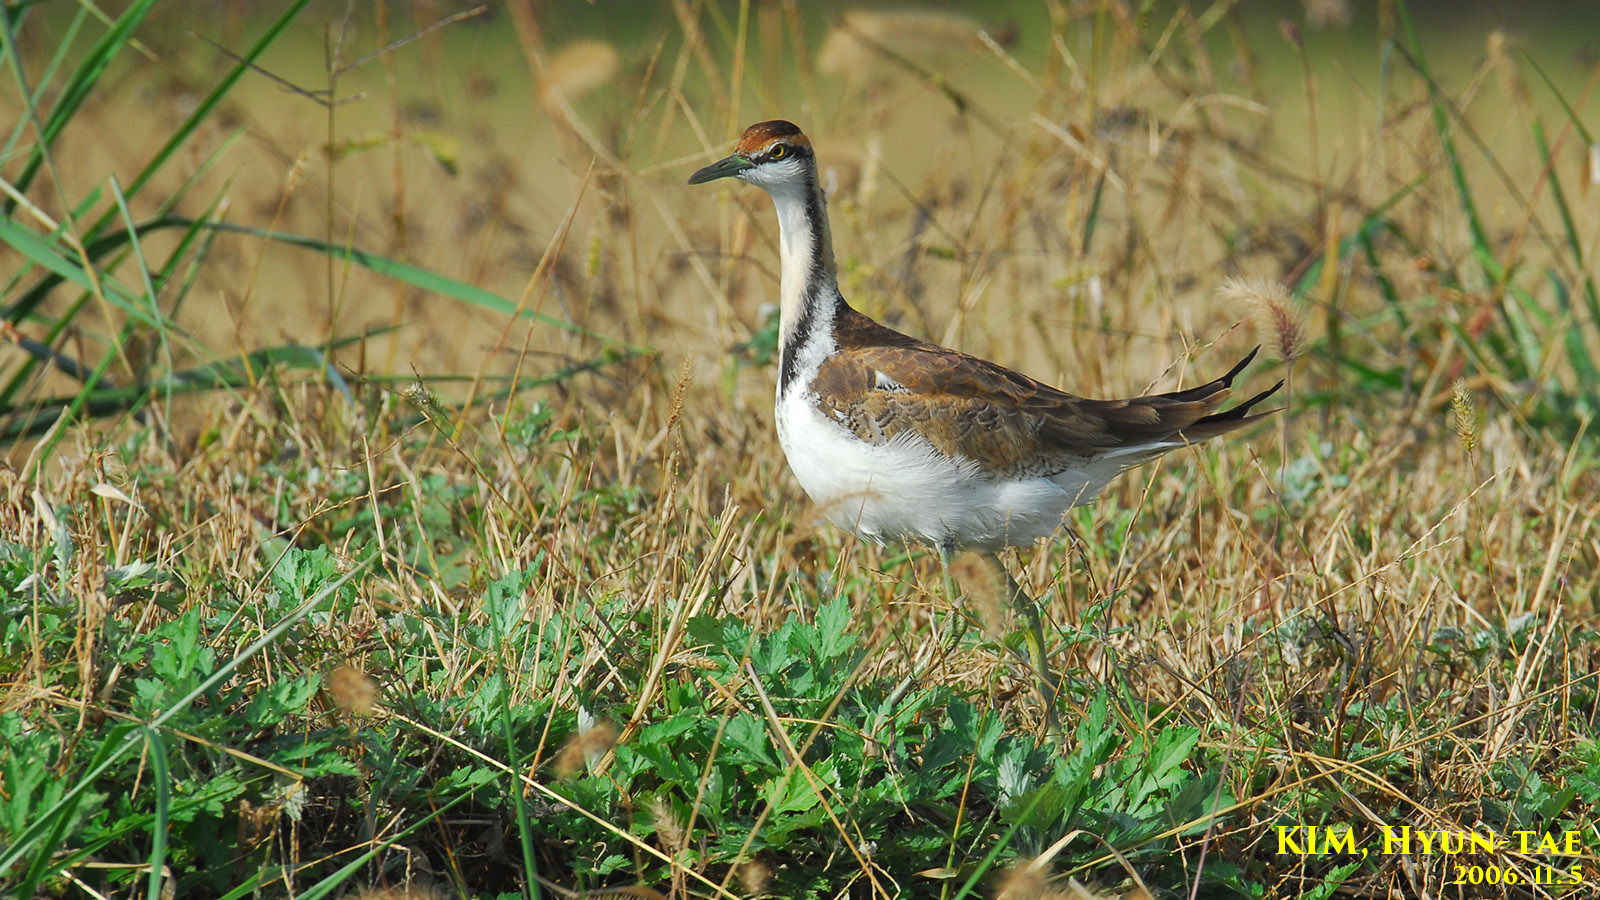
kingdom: Animalia
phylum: Chordata
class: Aves
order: Charadriiformes
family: Jacanidae
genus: Hydrophasianus
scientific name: Hydrophasianus chirurgus
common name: Pheasant-tailed jacana
